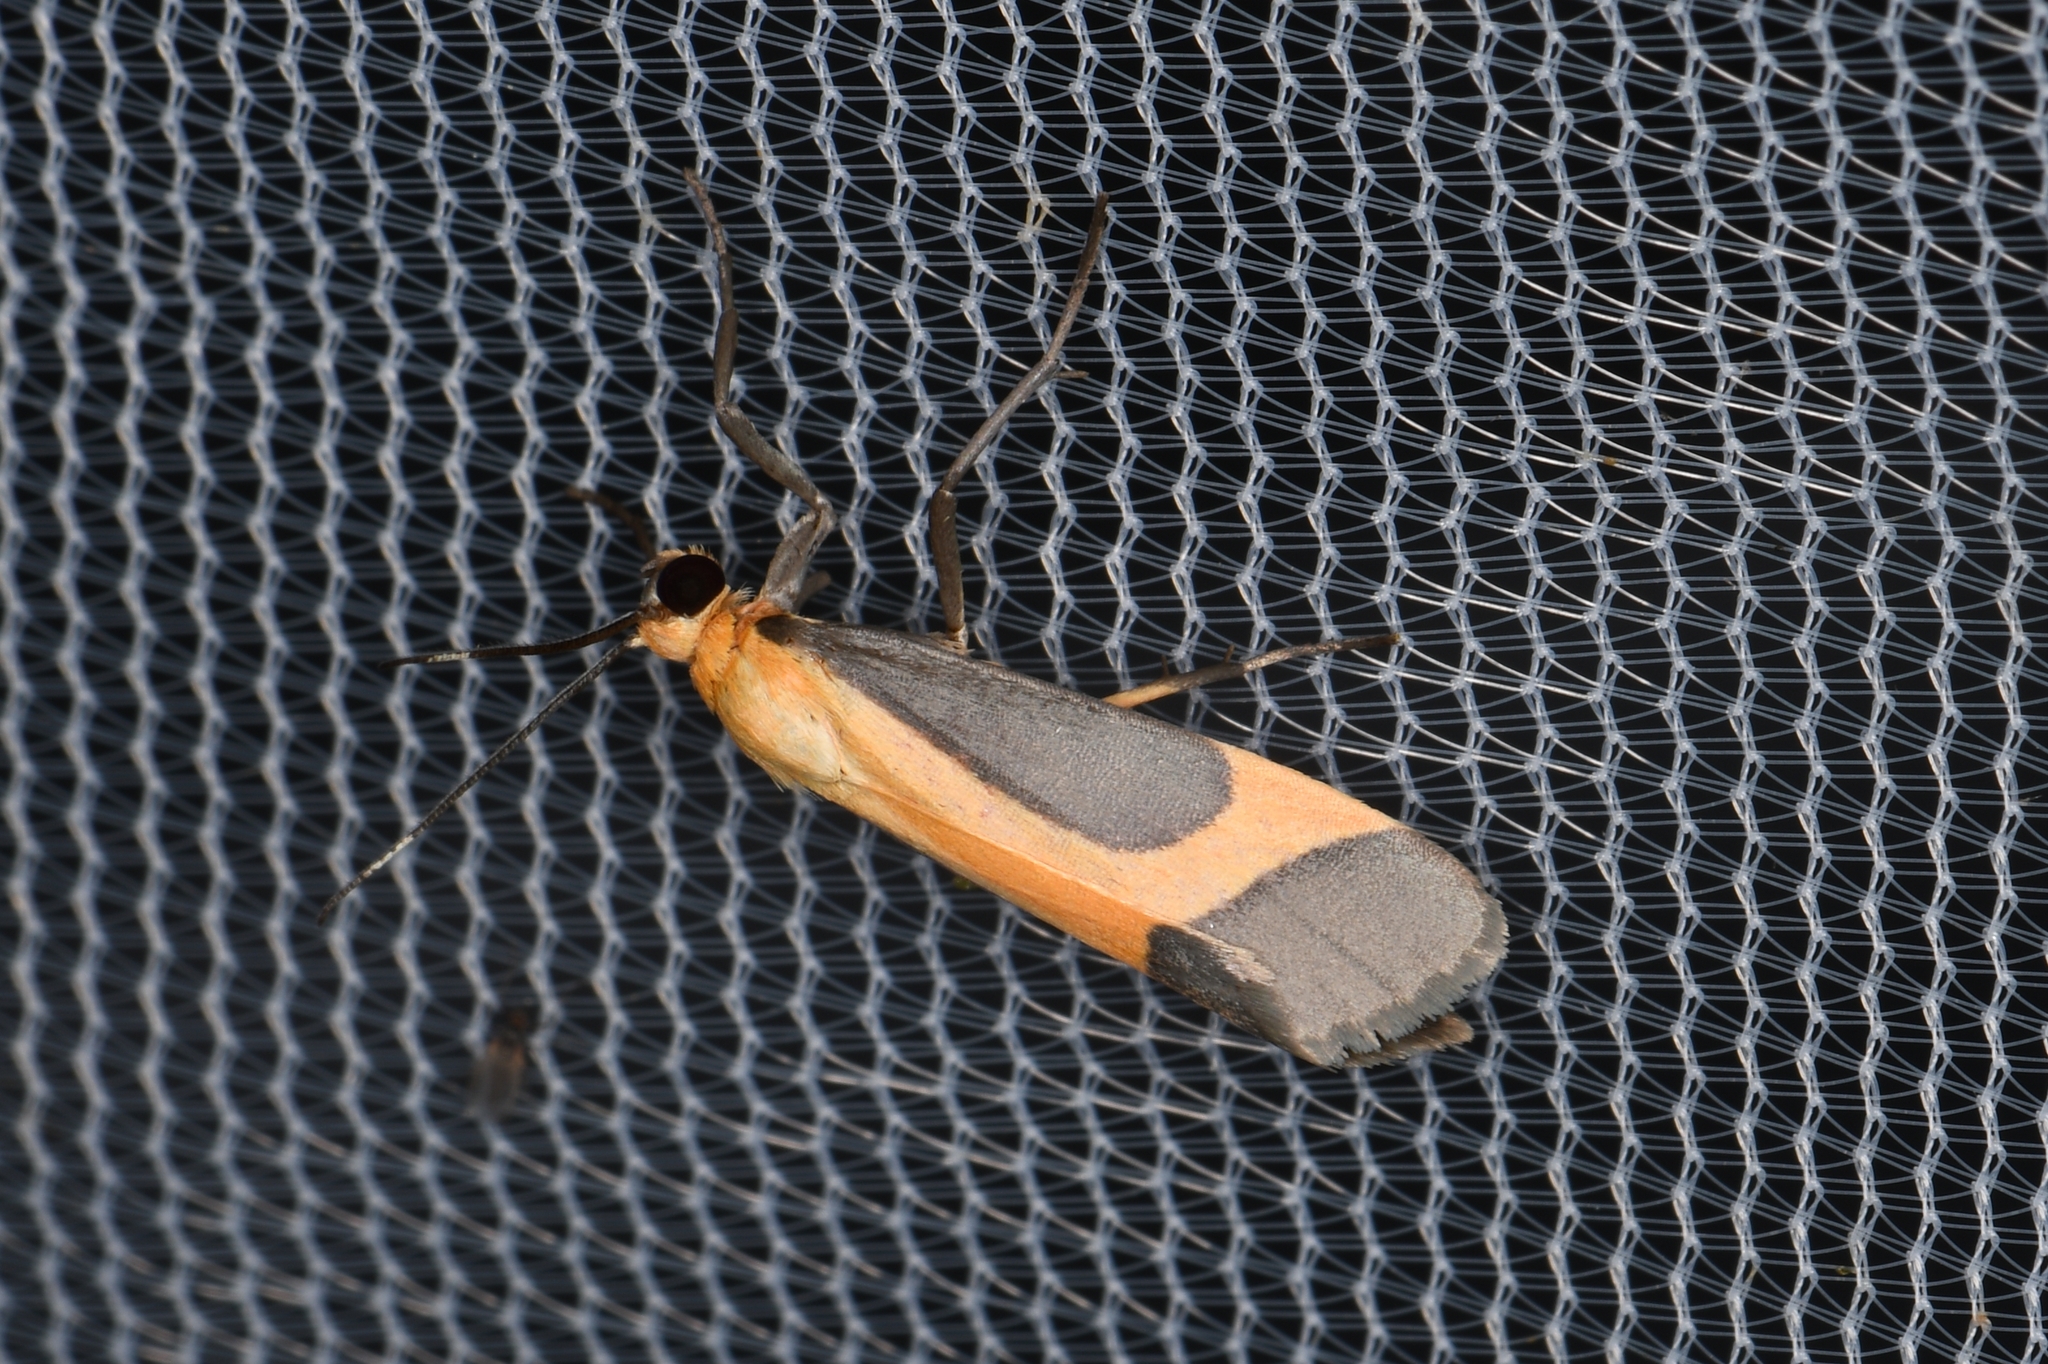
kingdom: Animalia
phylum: Arthropoda
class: Insecta
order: Lepidoptera
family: Erebidae
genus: Cisthene
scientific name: Cisthene angelus
